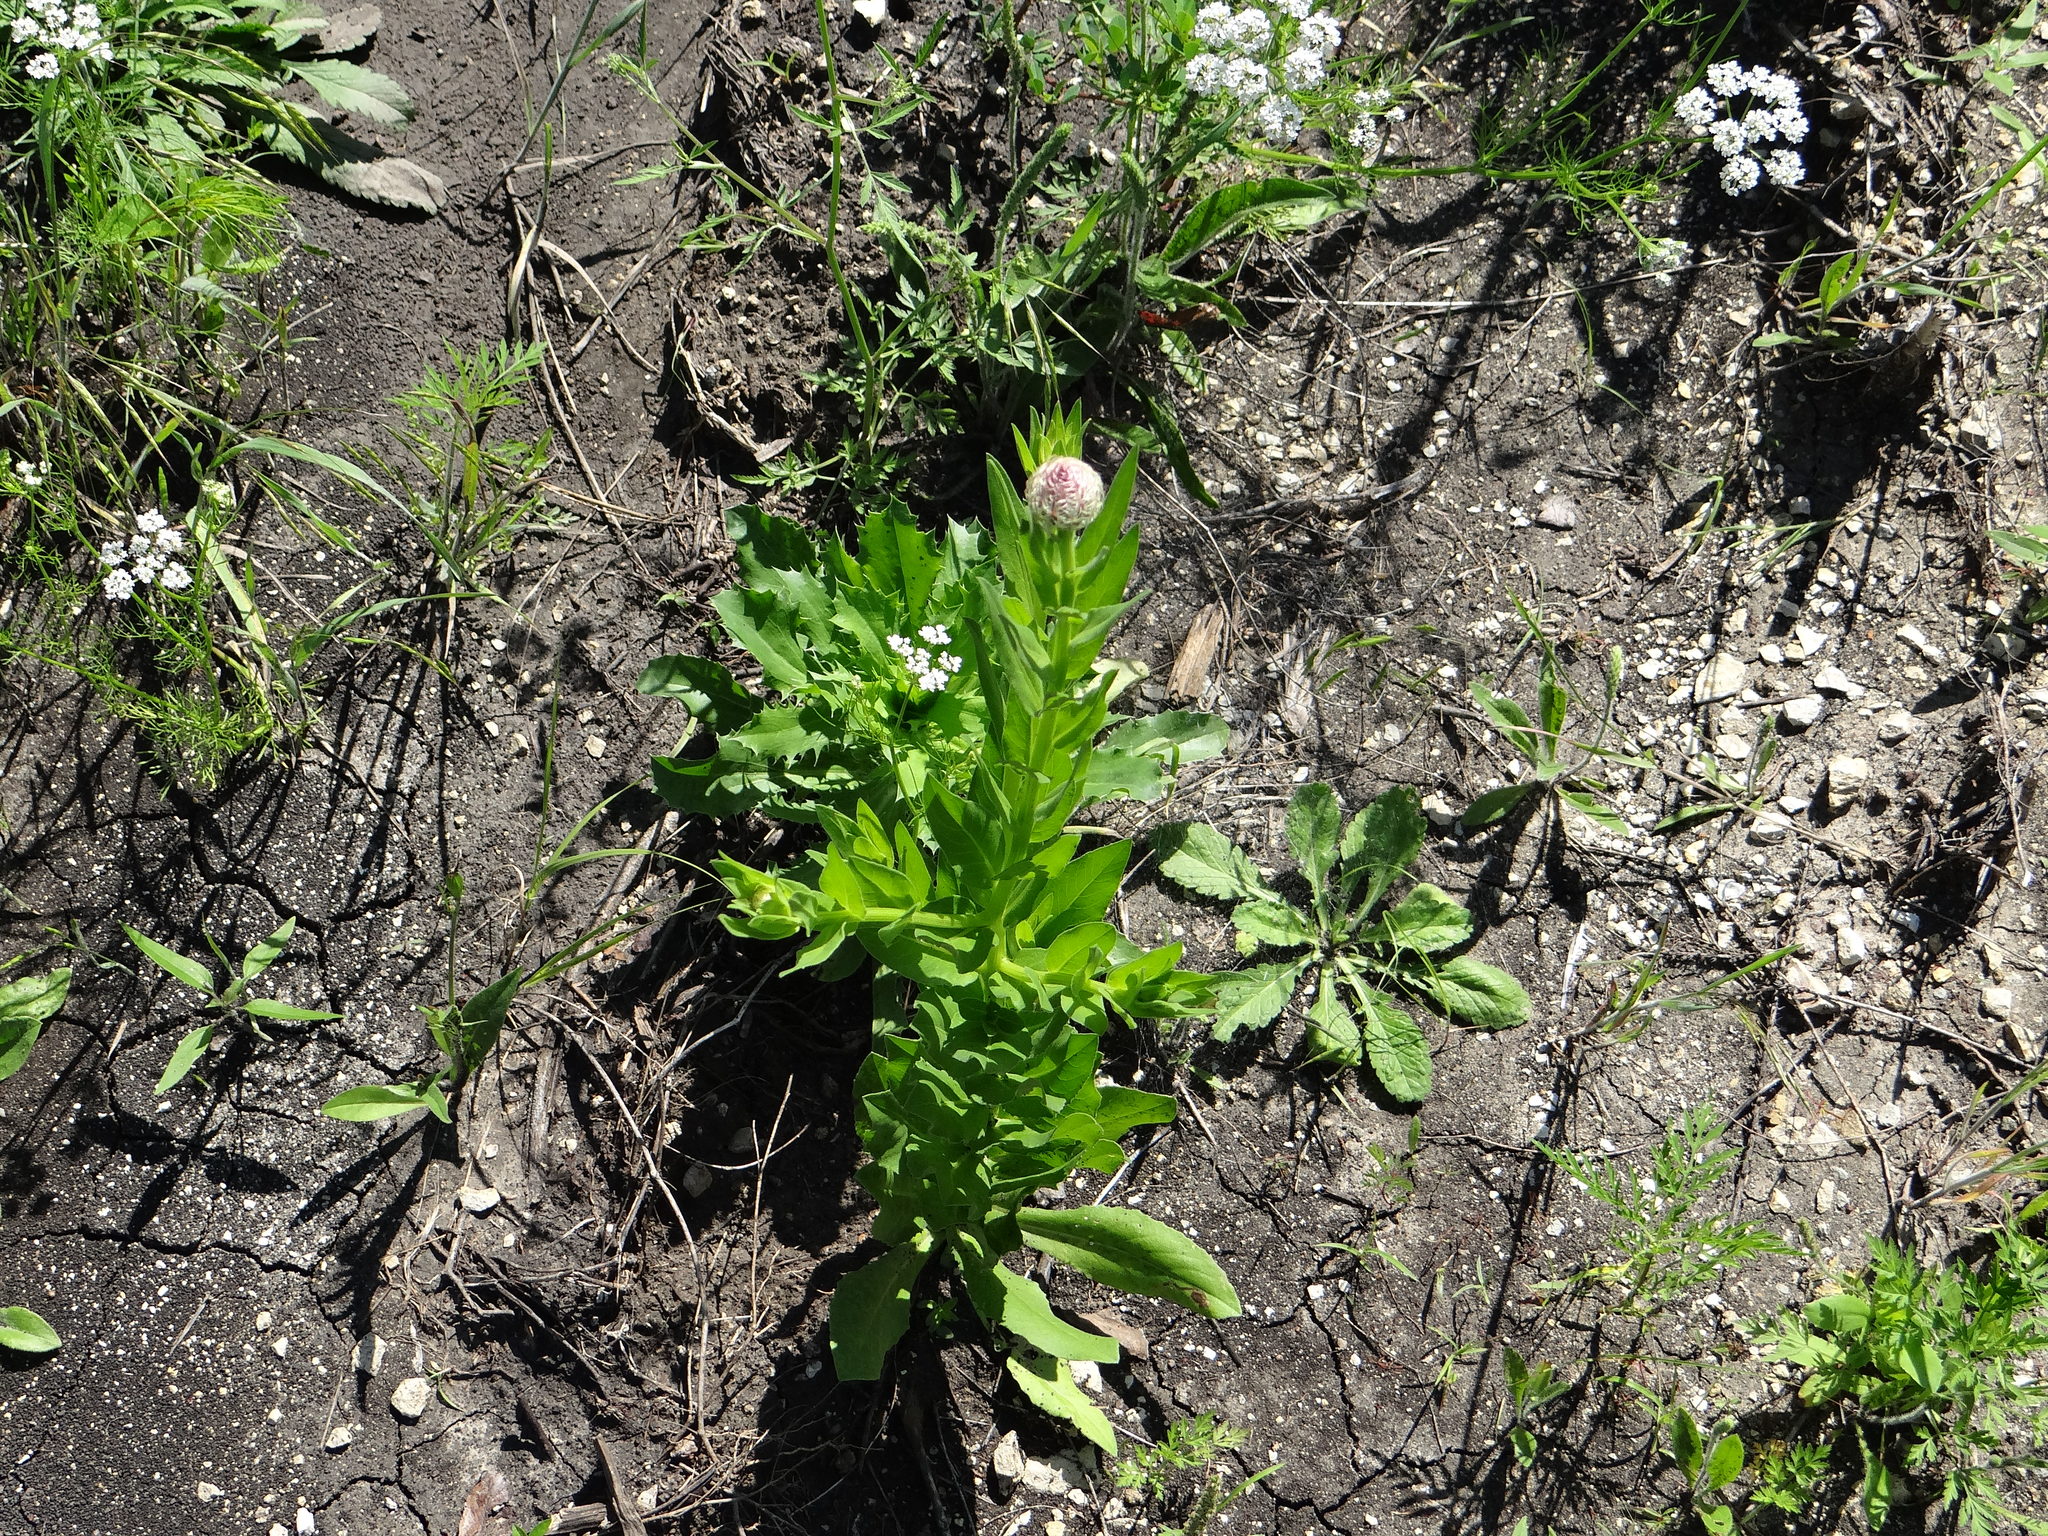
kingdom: Plantae
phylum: Tracheophyta
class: Magnoliopsida
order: Asterales
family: Asteraceae
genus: Plectocephalus
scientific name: Plectocephalus americanus
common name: American basket-flower
